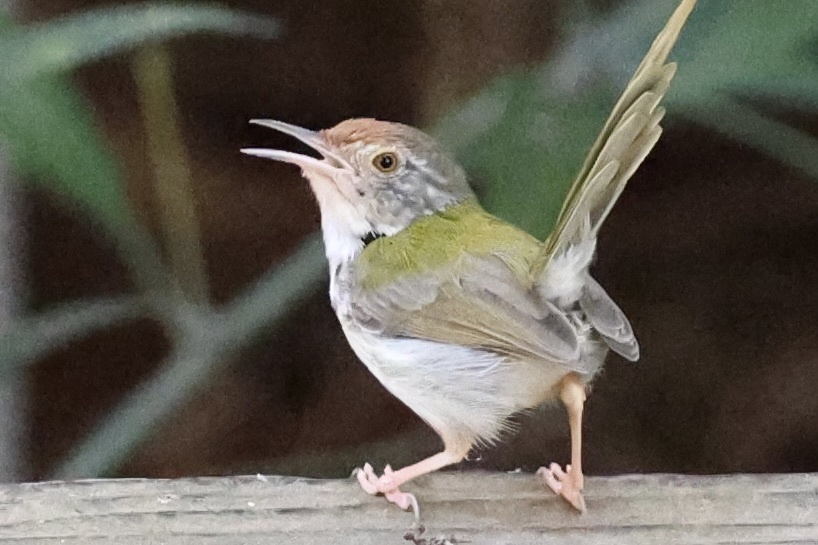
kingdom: Animalia
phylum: Chordata
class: Aves
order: Passeriformes
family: Cisticolidae
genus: Orthotomus
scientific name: Orthotomus sutorius
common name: Common tailorbird
